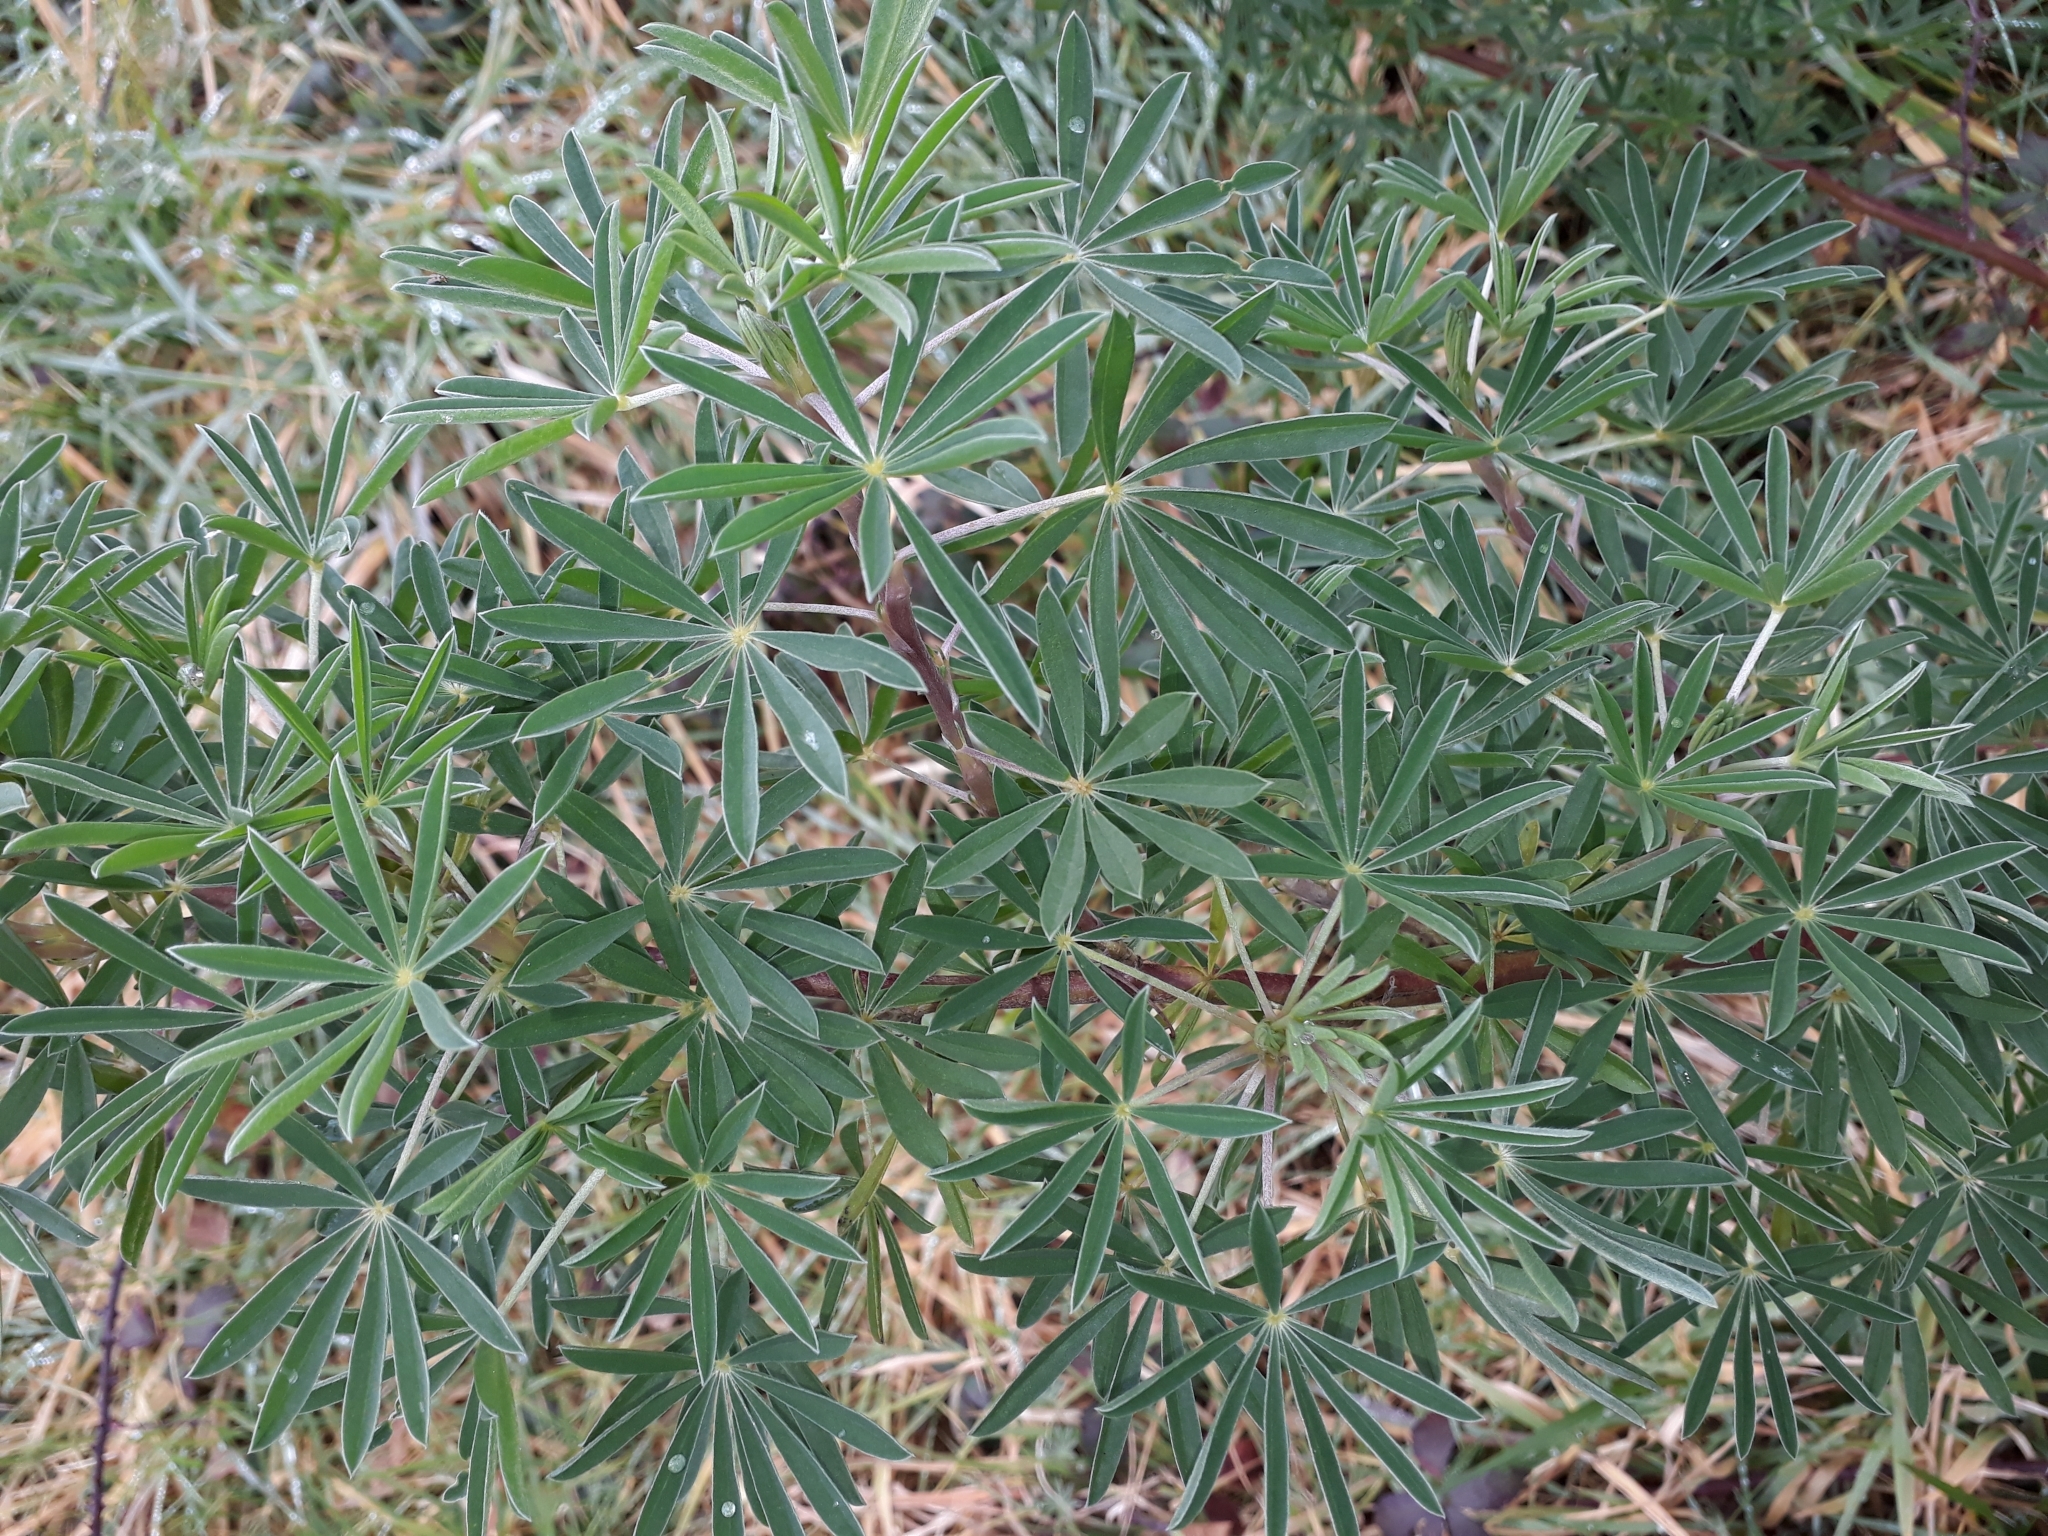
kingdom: Plantae
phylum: Tracheophyta
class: Magnoliopsida
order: Fabales
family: Fabaceae
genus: Lupinus
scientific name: Lupinus arboreus
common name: Yellow bush lupine
